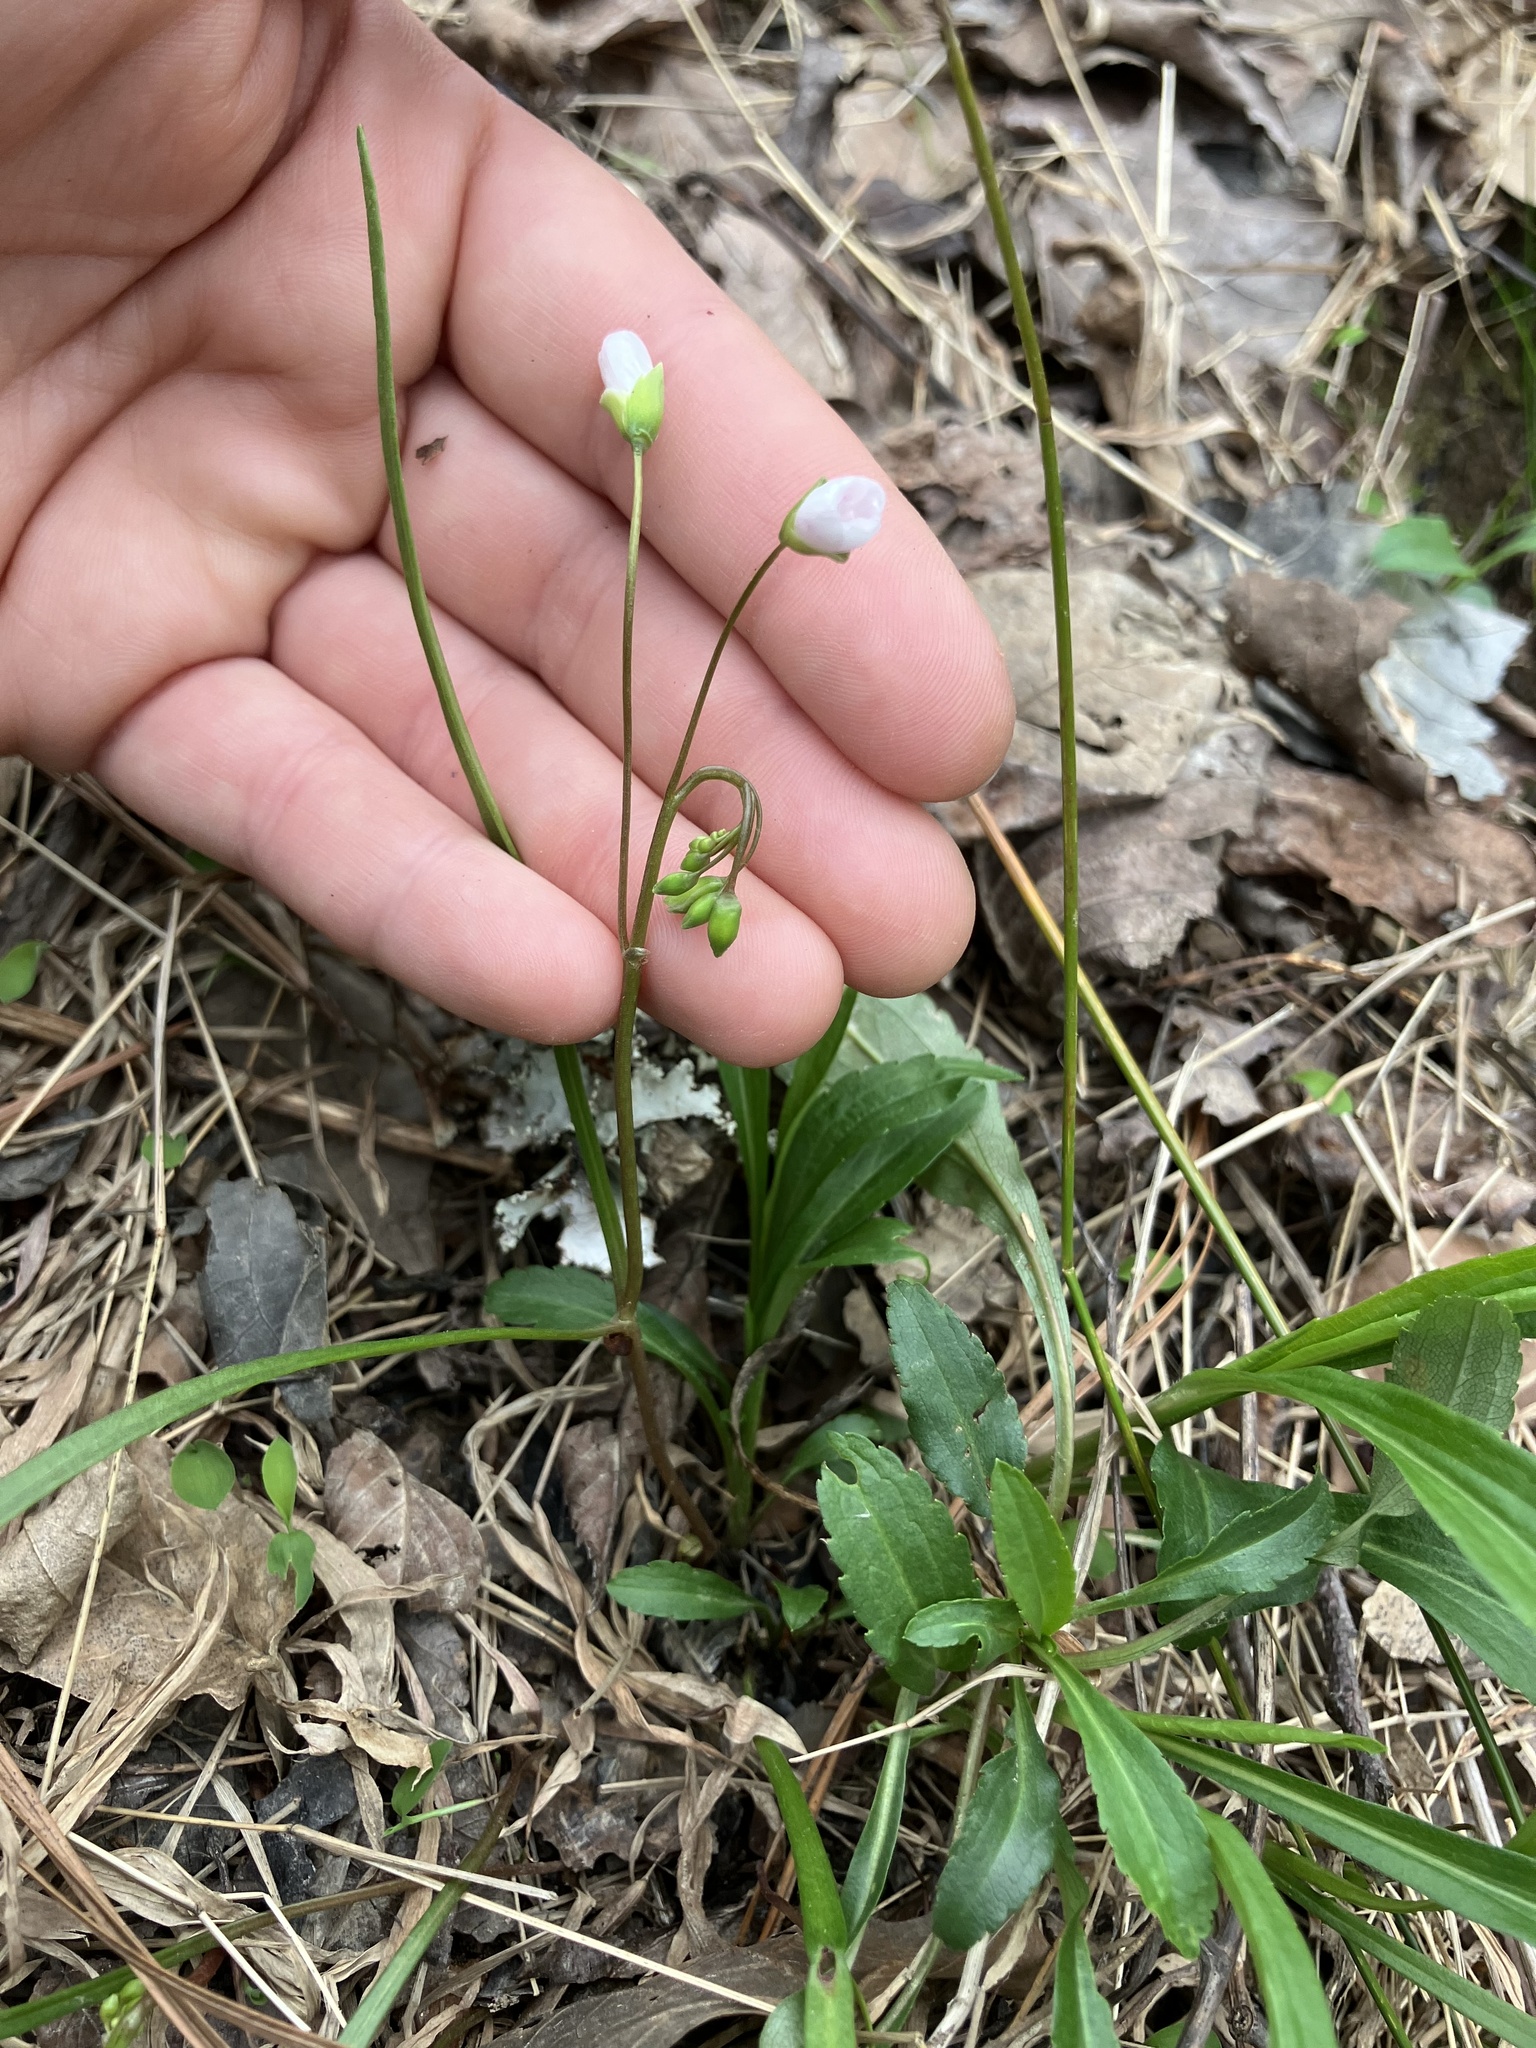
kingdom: Plantae
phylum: Tracheophyta
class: Magnoliopsida
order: Caryophyllales
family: Montiaceae
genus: Claytonia
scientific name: Claytonia virginica
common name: Virginia springbeauty
